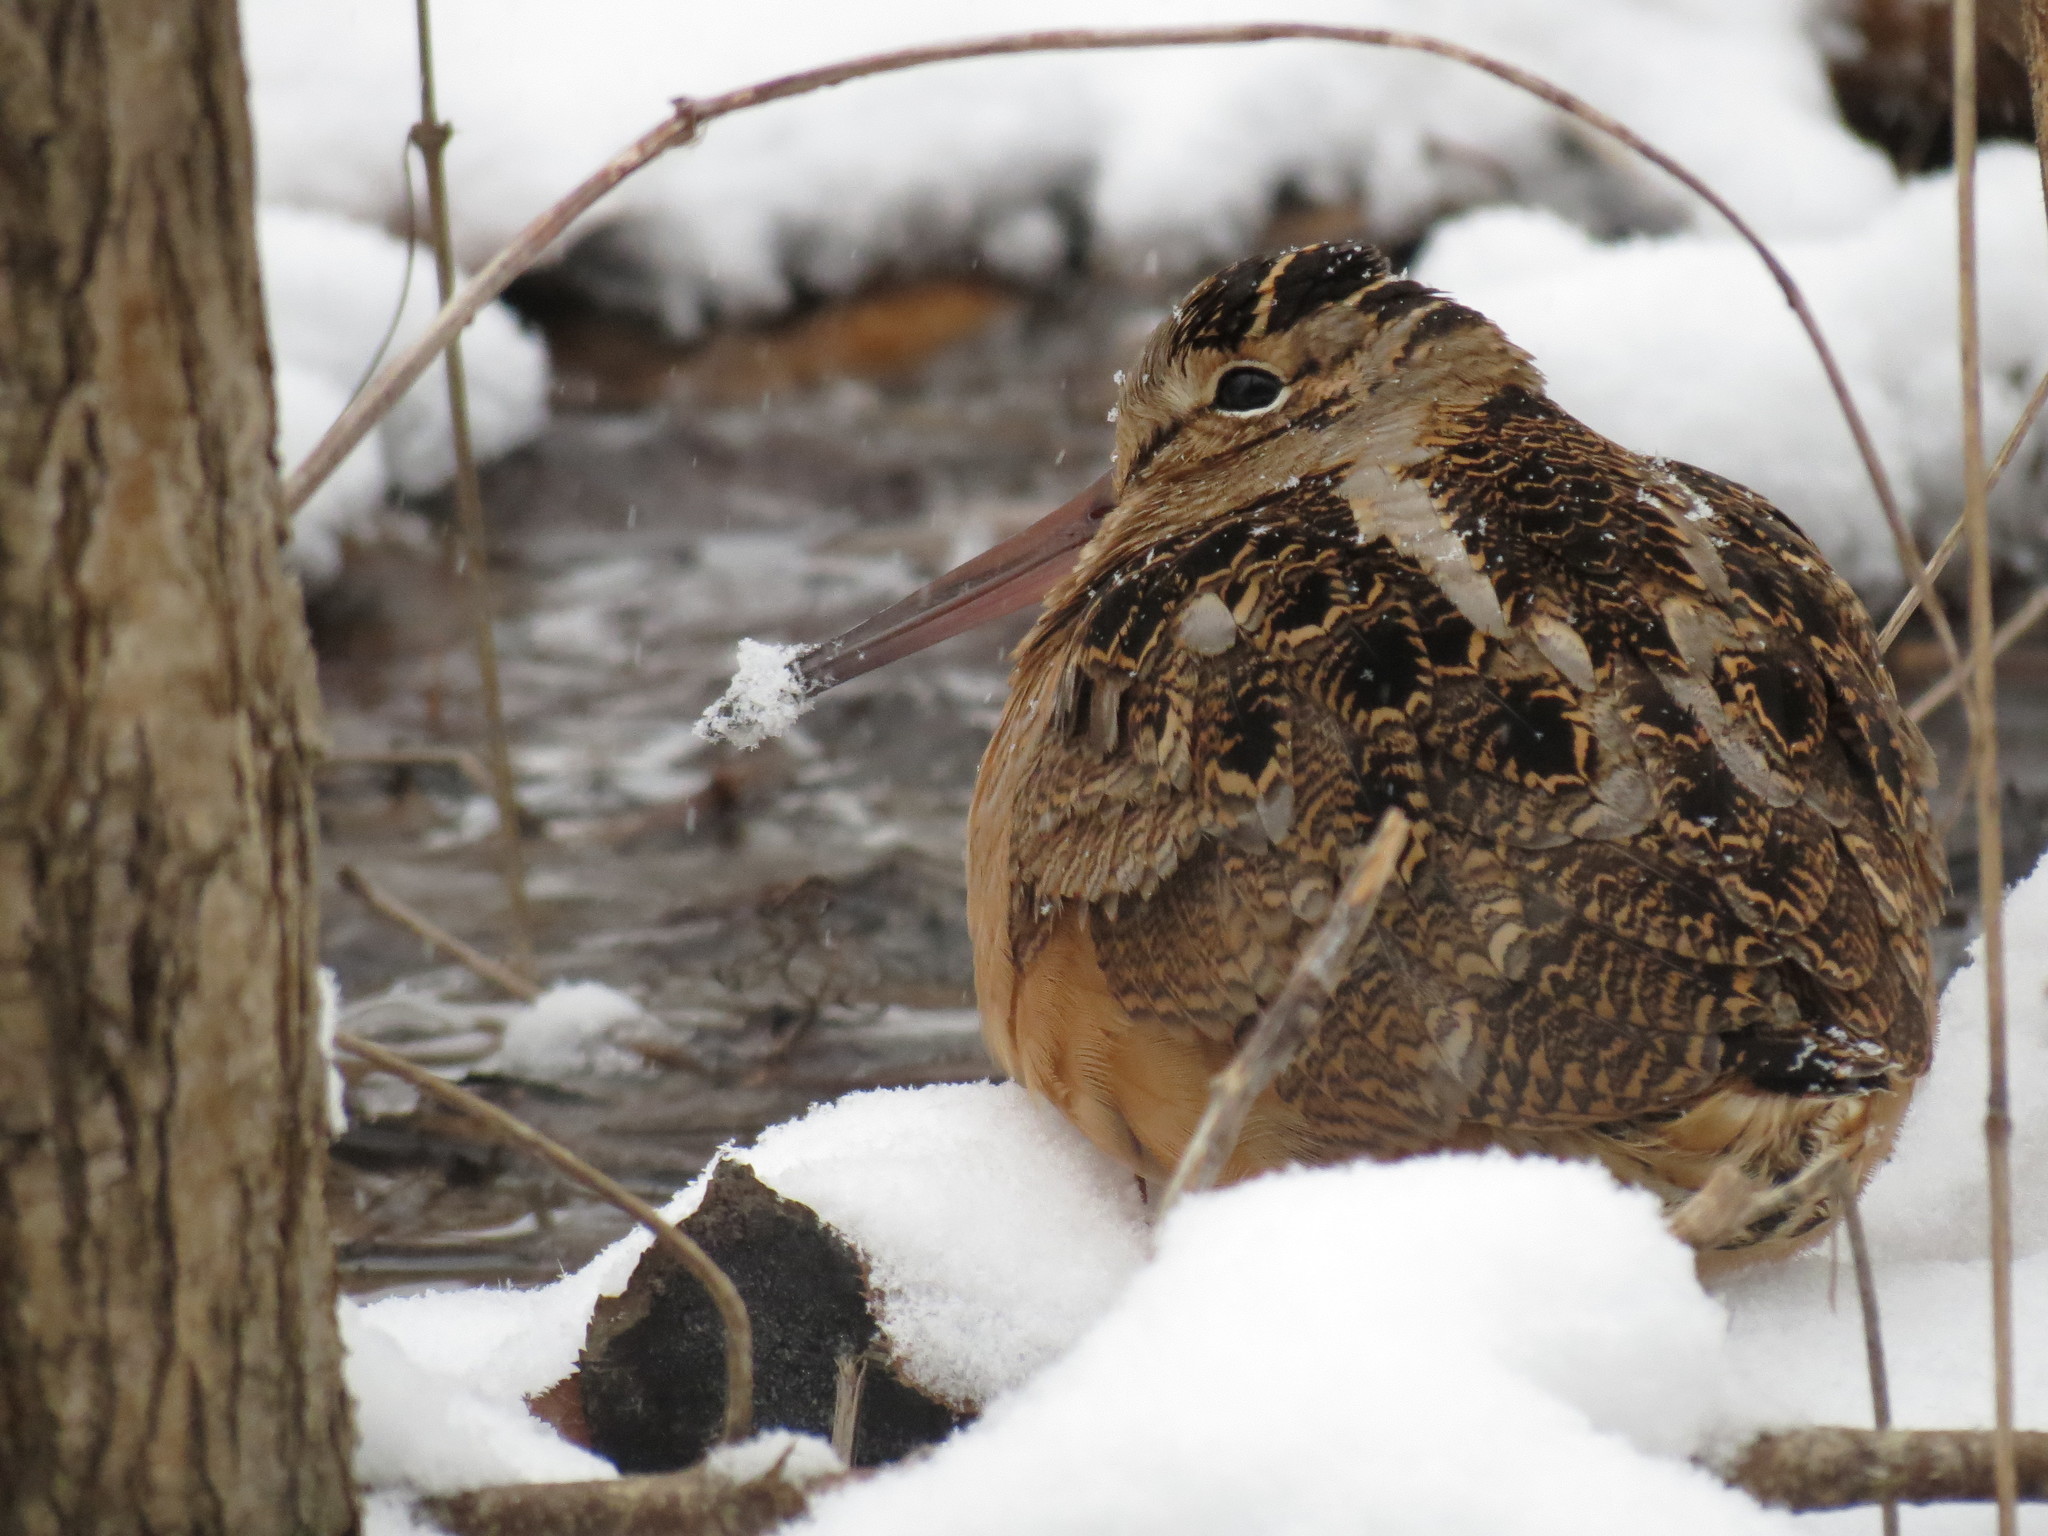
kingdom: Animalia
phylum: Chordata
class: Aves
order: Charadriiformes
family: Scolopacidae
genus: Scolopax
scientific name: Scolopax minor
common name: American woodcock
